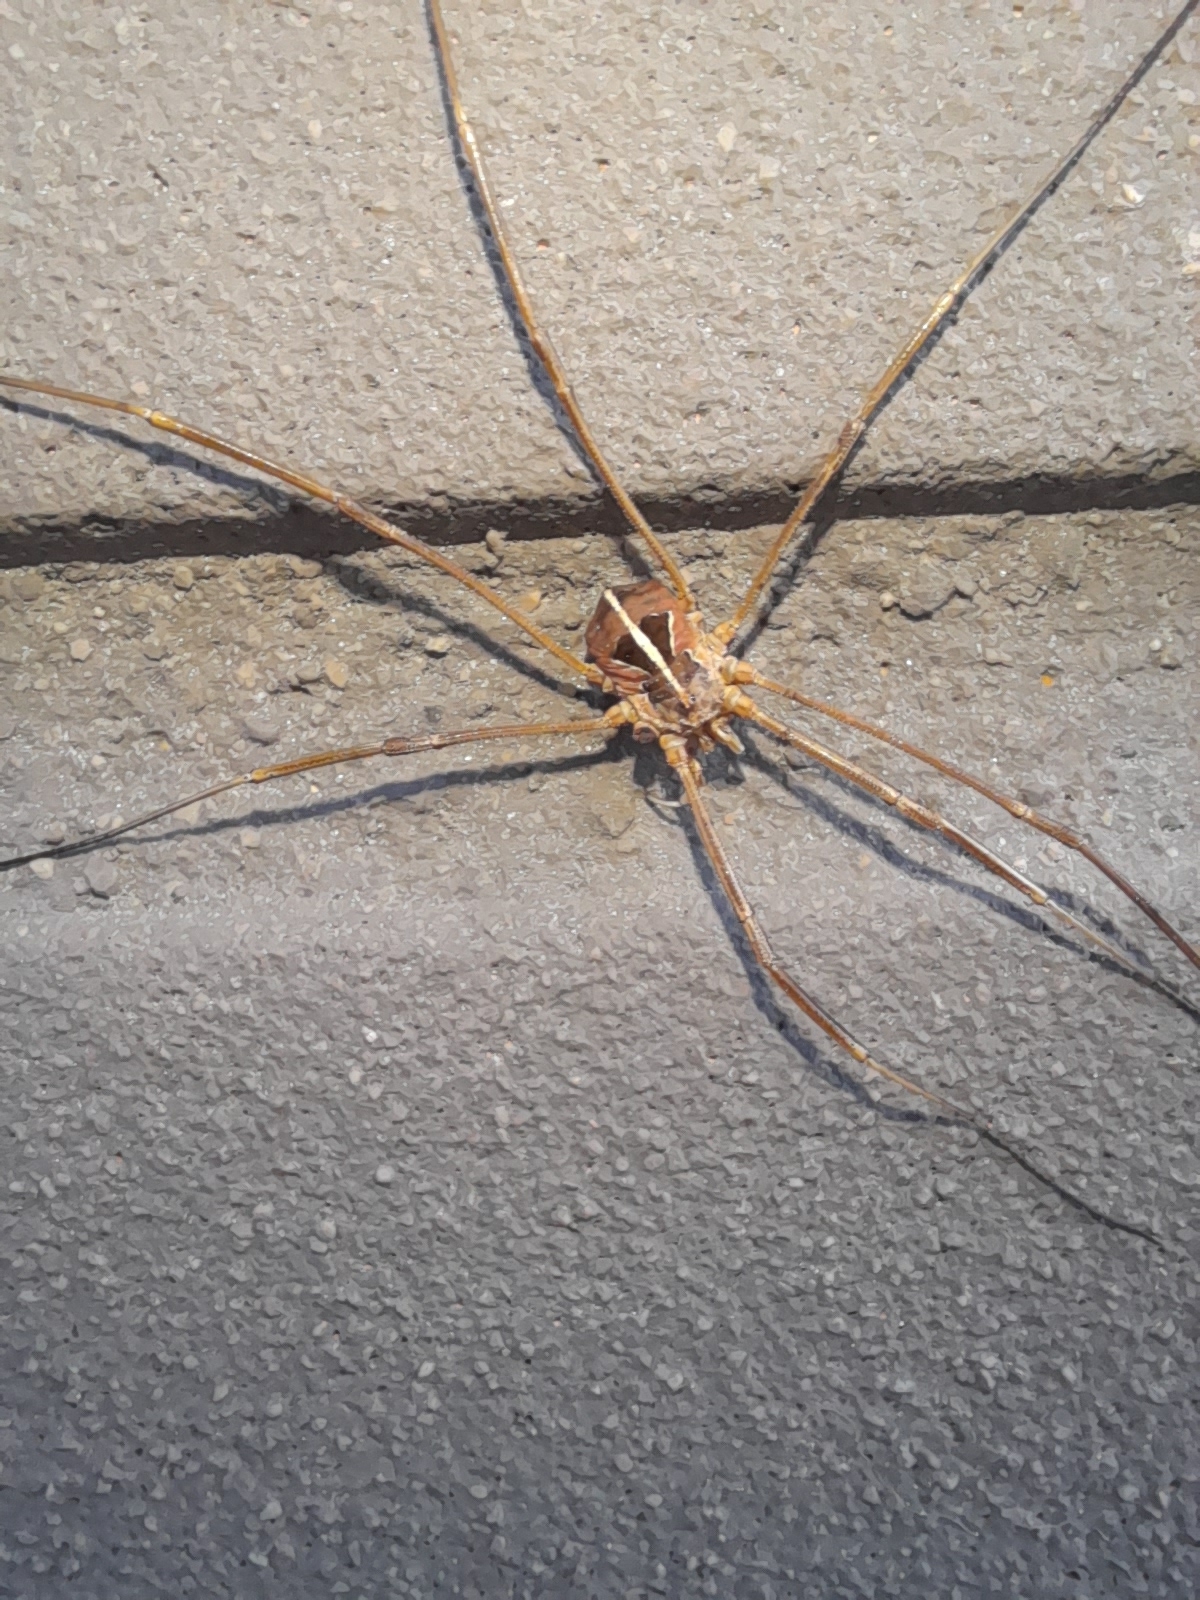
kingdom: Animalia
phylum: Arthropoda
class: Arachnida
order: Opiliones
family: Phalangiidae
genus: Metaphalangium
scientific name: Metaphalangium cirtanum
